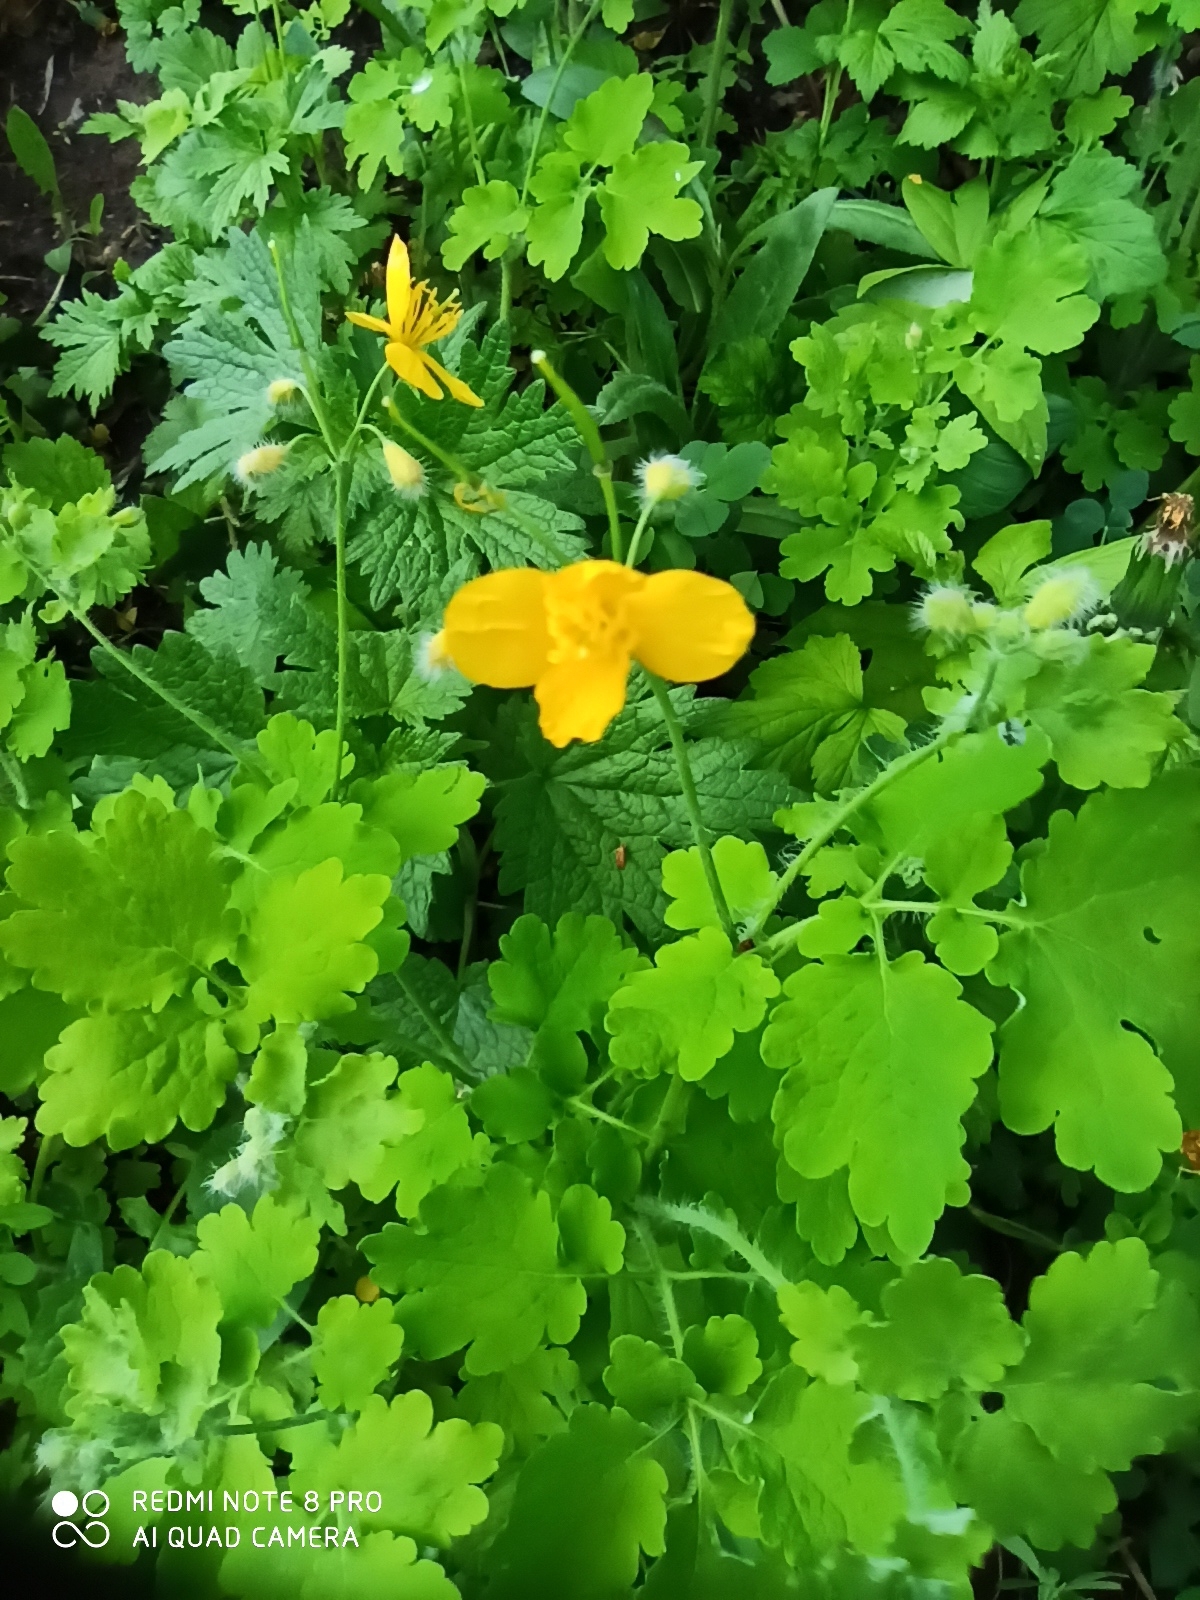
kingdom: Plantae
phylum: Tracheophyta
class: Magnoliopsida
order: Ranunculales
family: Papaveraceae
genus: Chelidonium
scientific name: Chelidonium majus
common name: Greater celandine
